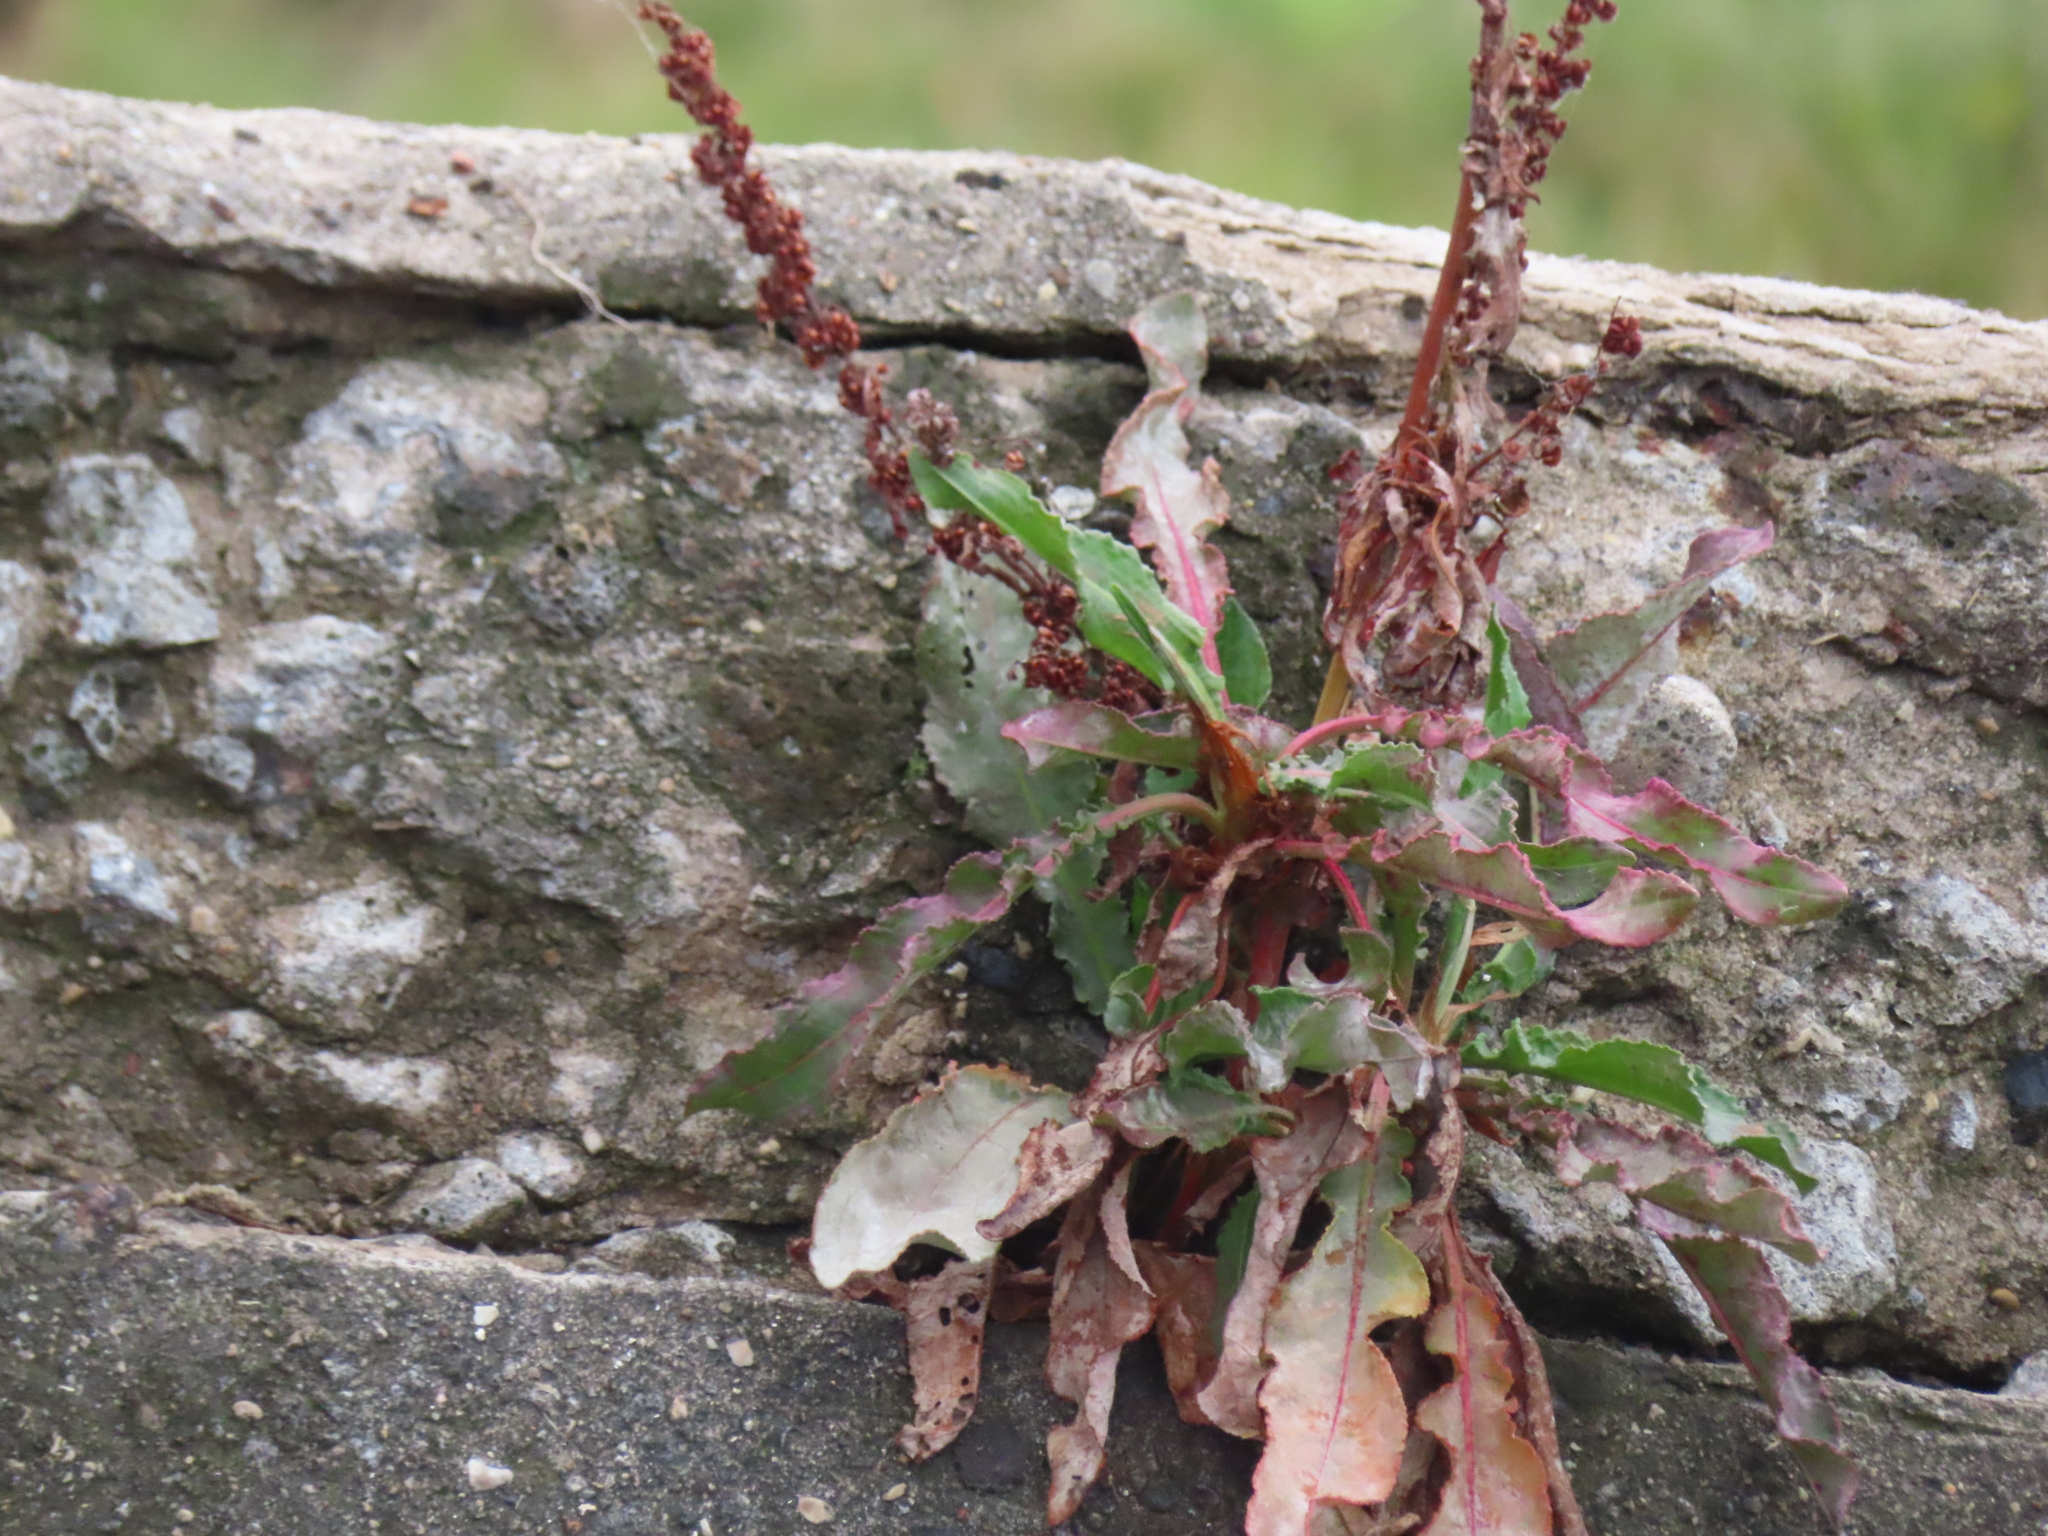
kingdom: Plantae
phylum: Tracheophyta
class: Magnoliopsida
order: Caryophyllales
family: Polygonaceae
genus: Rumex
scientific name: Rumex crispus
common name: Curled dock
